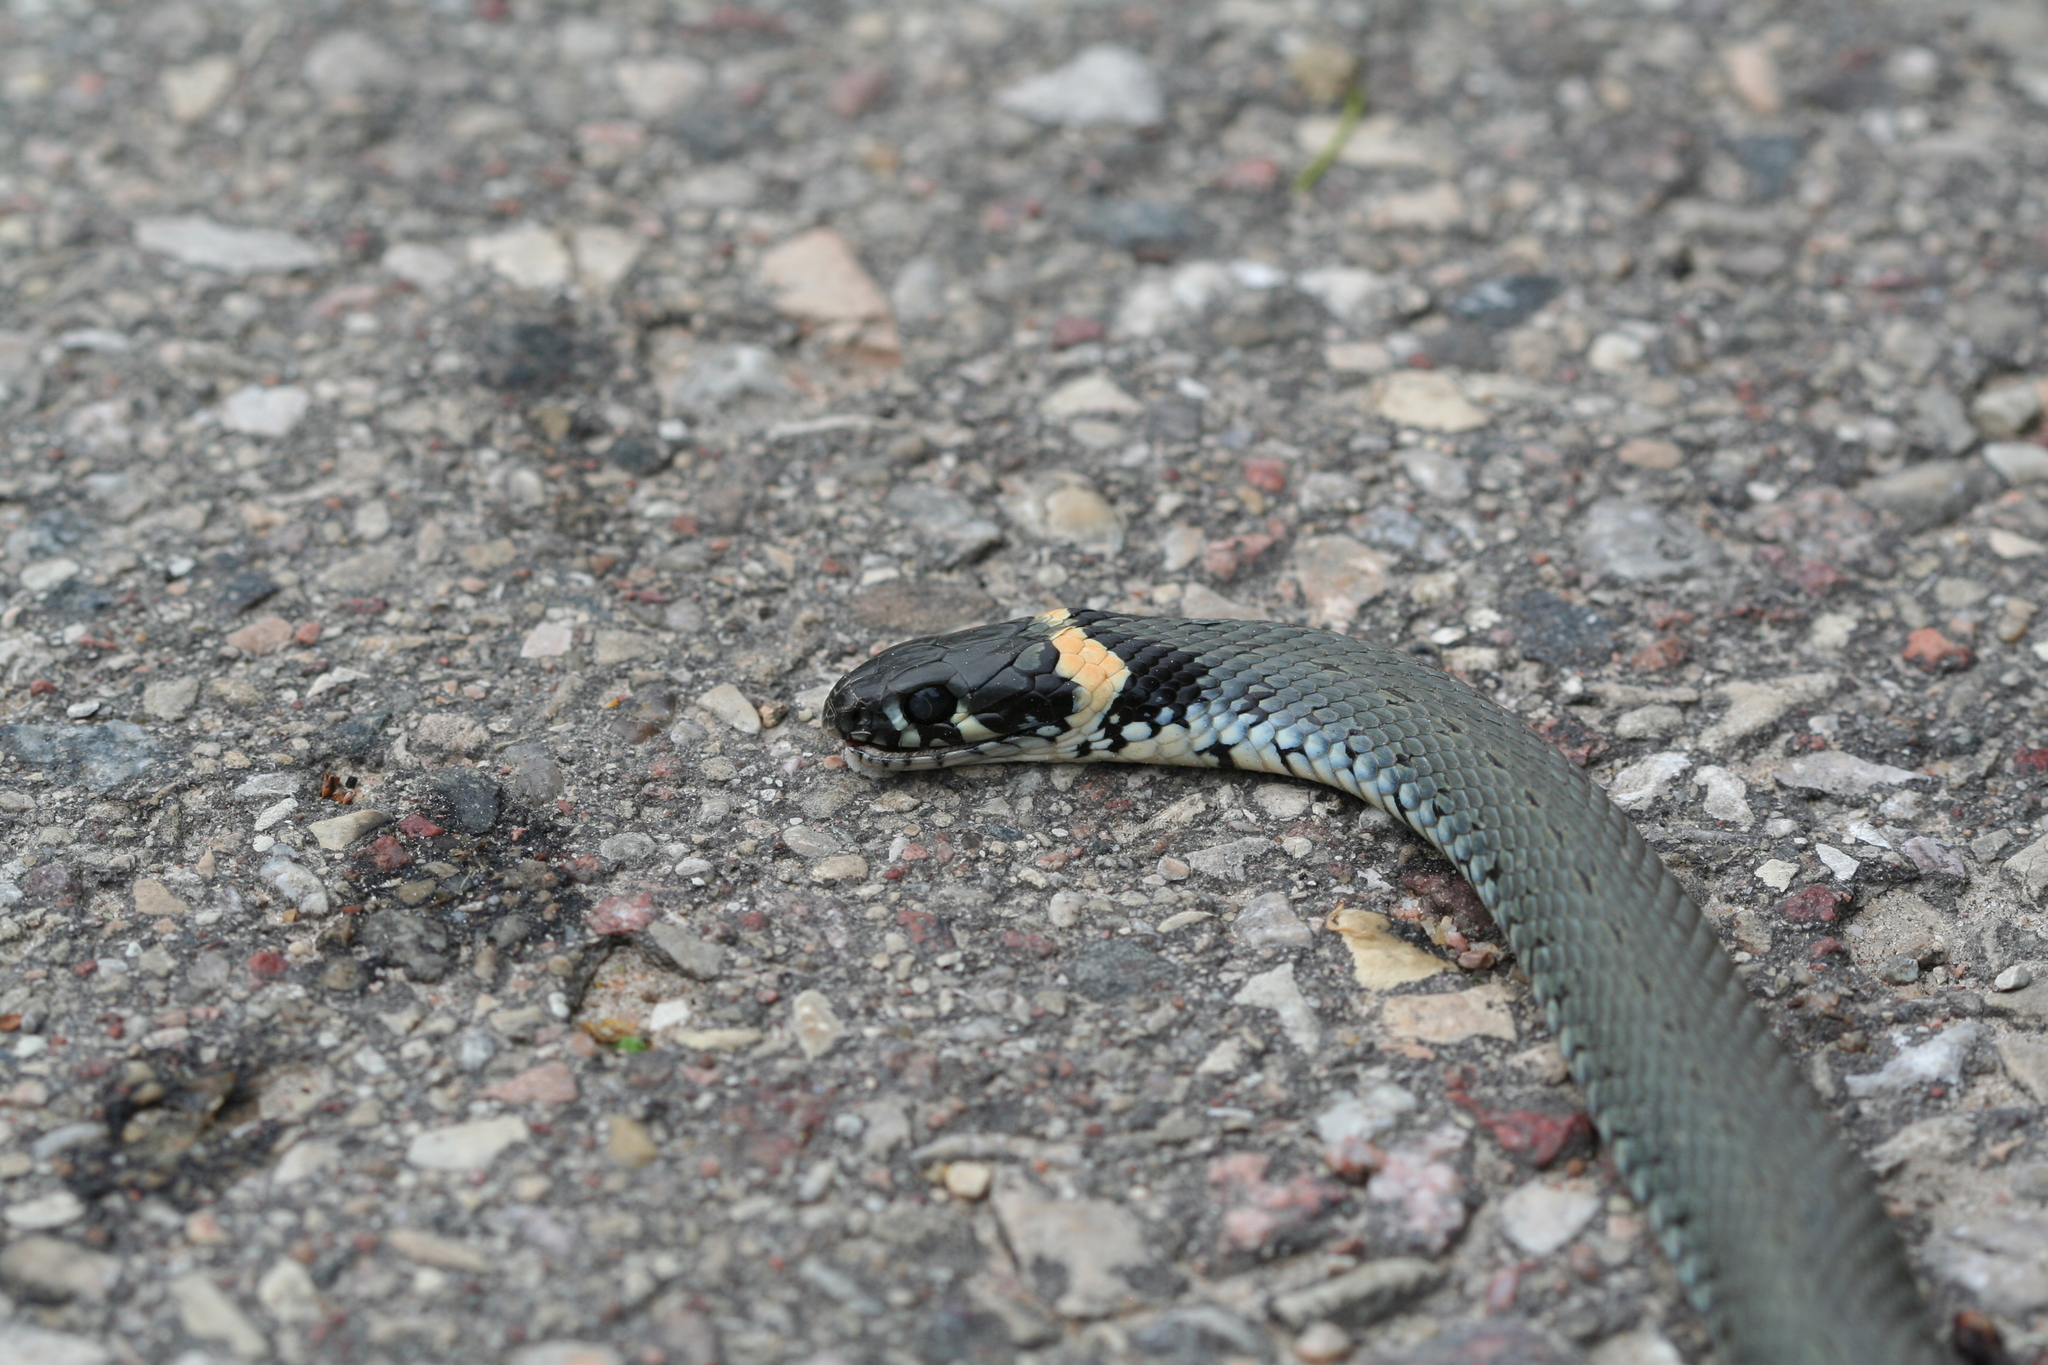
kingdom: Animalia
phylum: Chordata
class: Squamata
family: Colubridae
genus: Natrix
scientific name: Natrix natrix
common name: Grass snake
